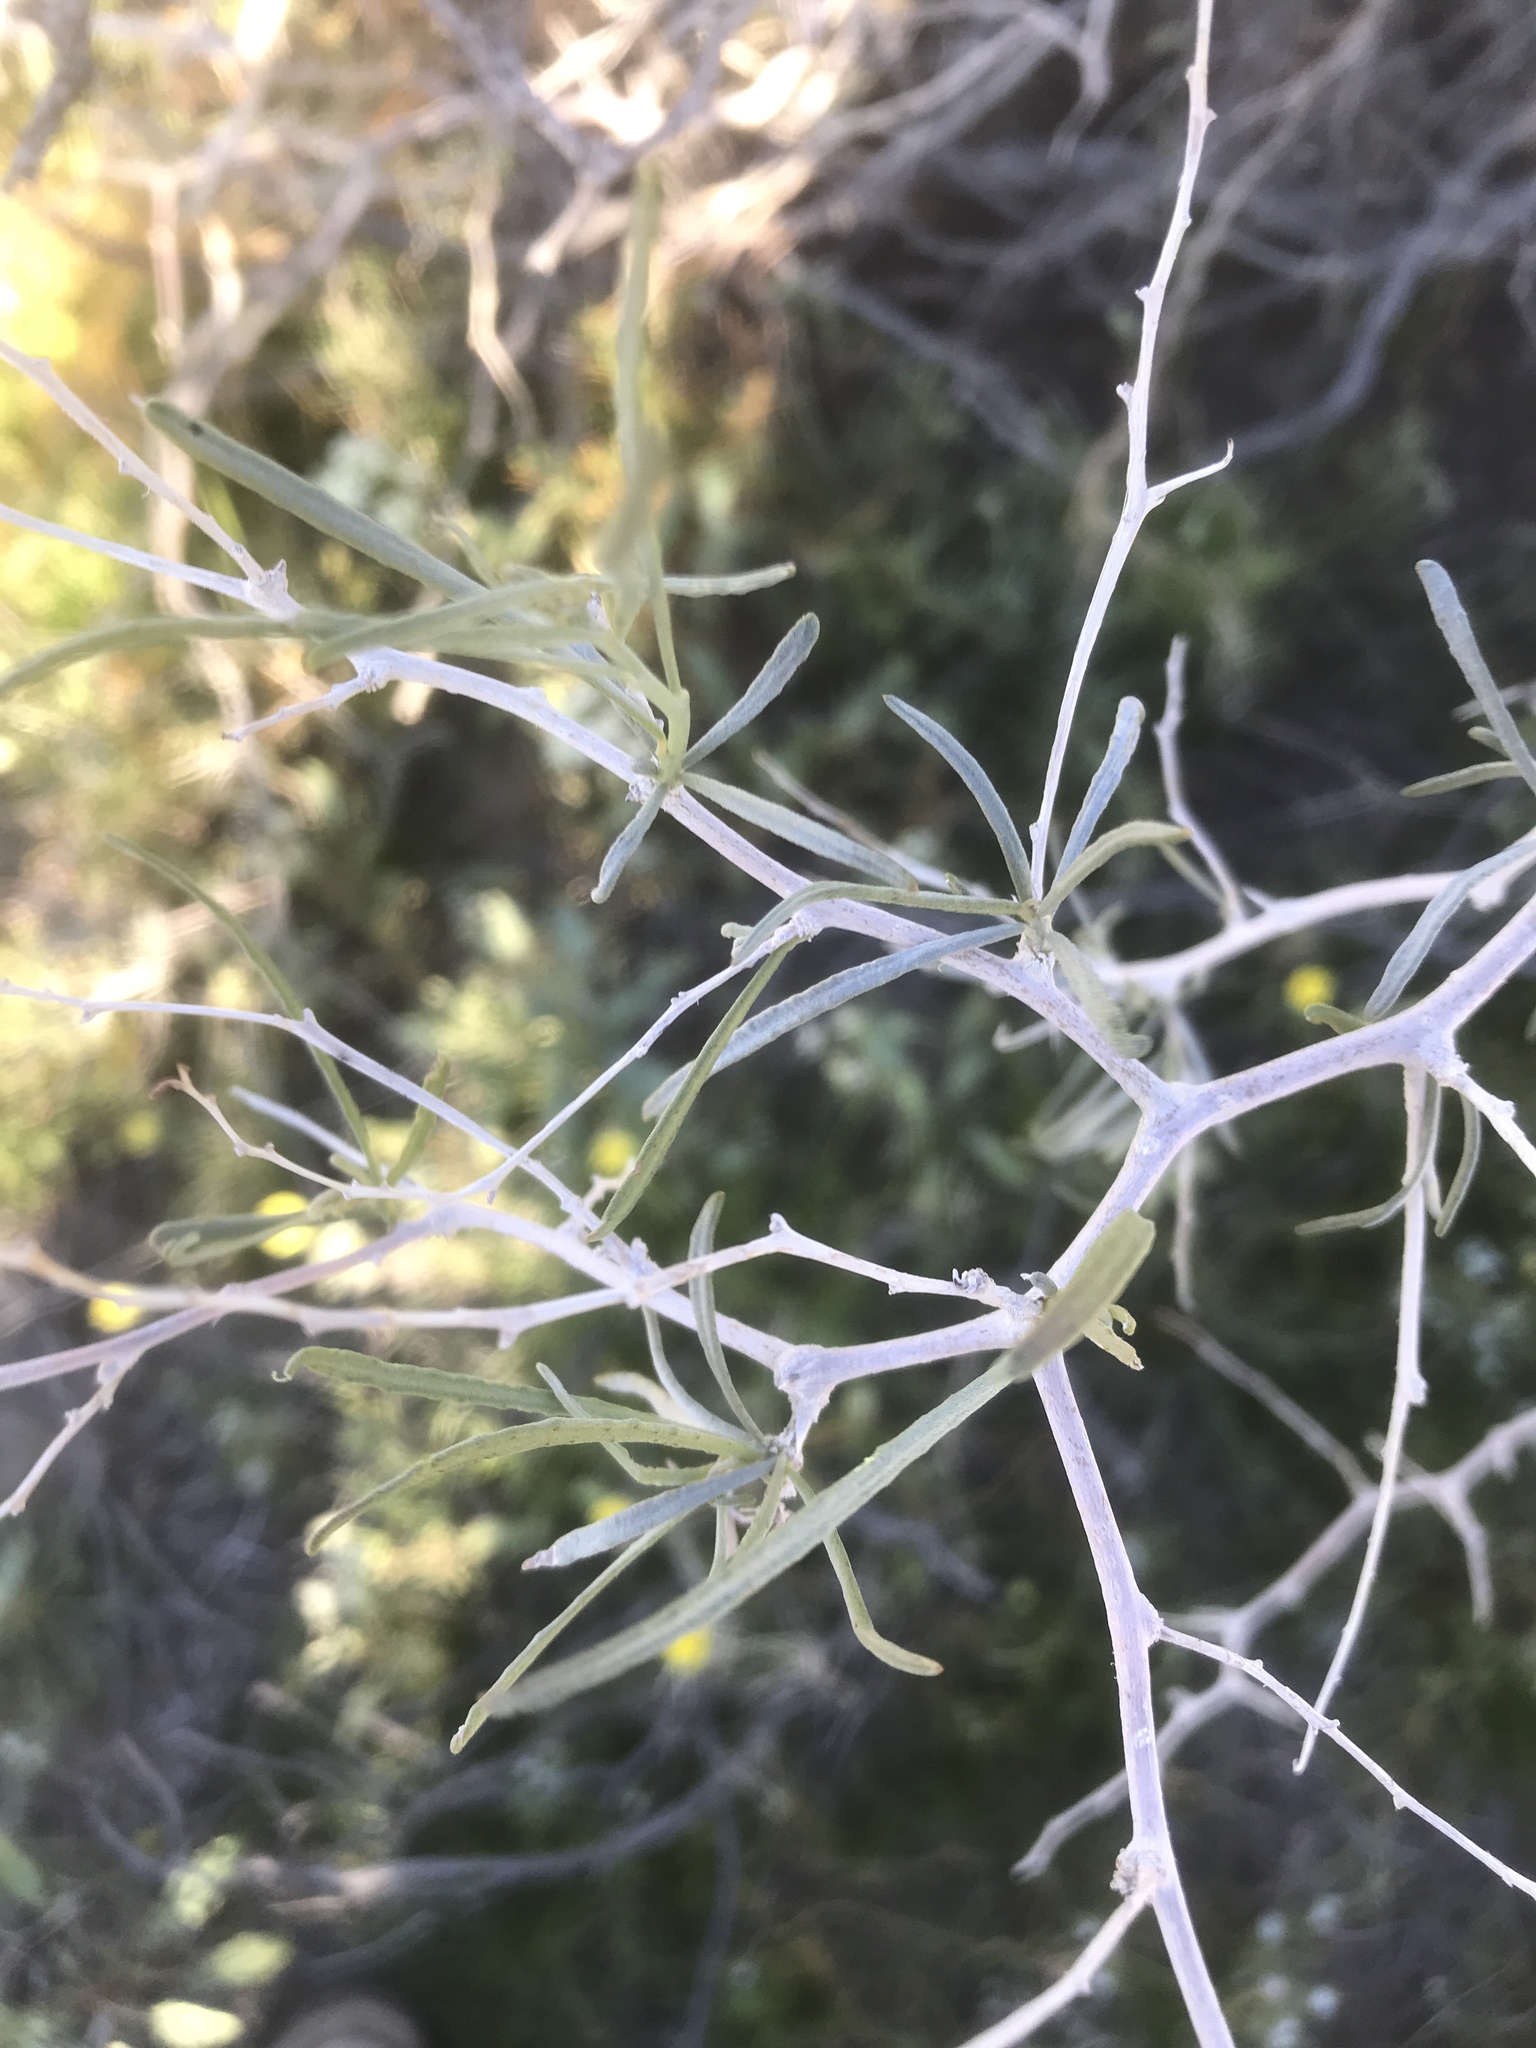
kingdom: Plantae
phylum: Tracheophyta
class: Magnoliopsida
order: Fabales
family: Fabaceae
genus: Psorothamnus
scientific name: Psorothamnus schottii
